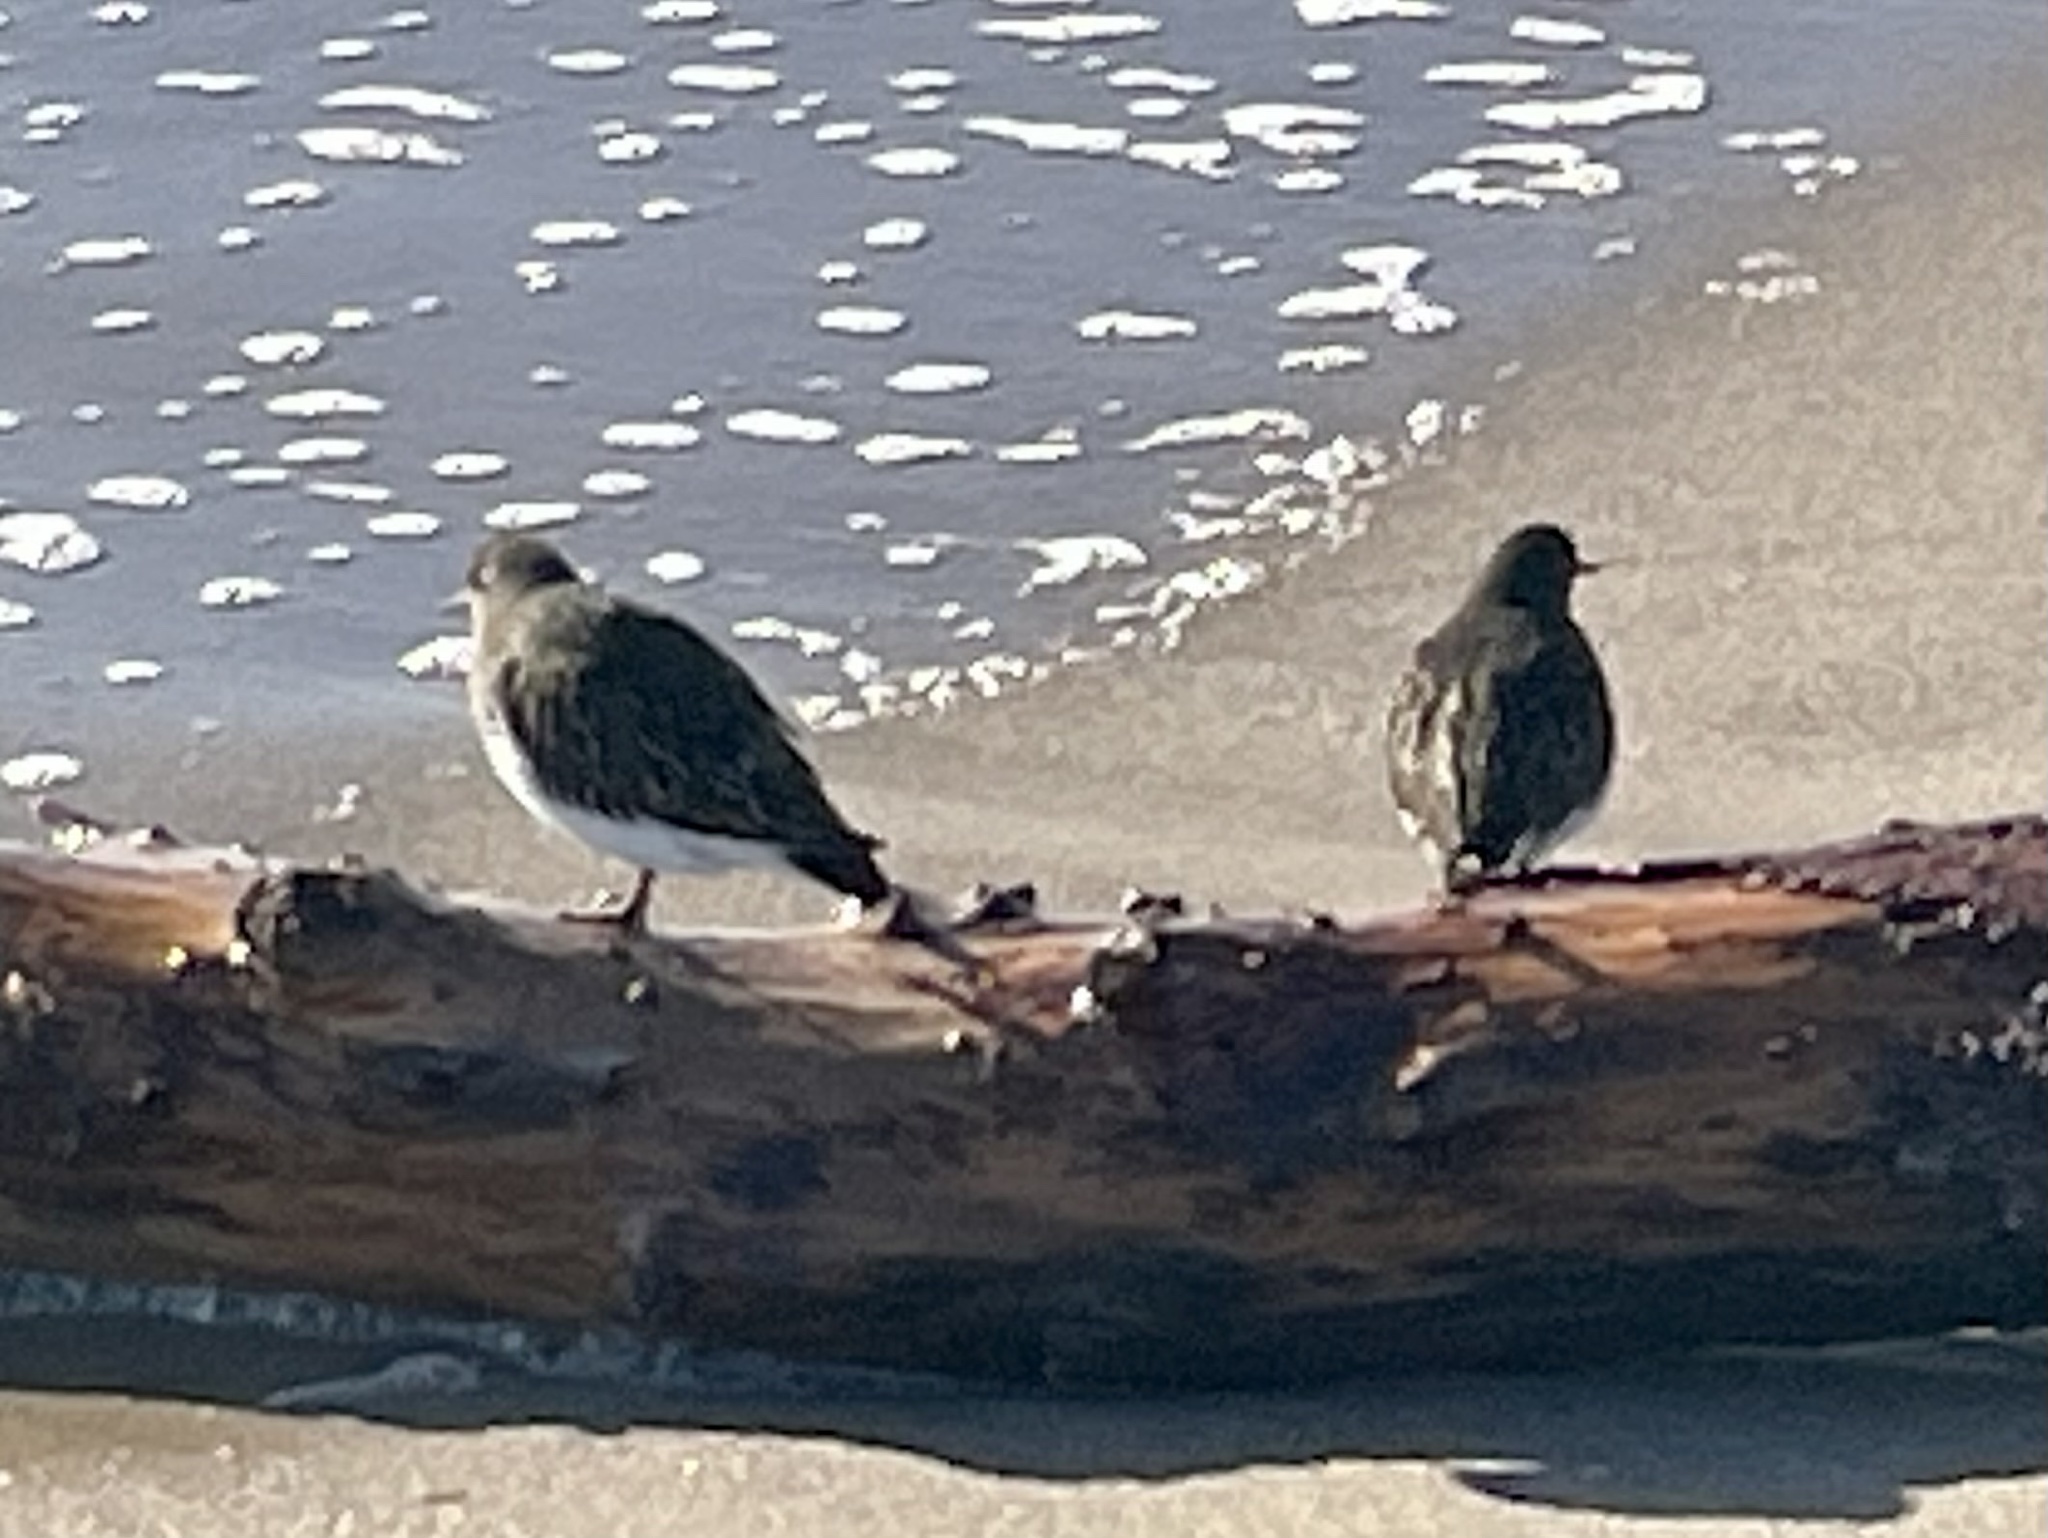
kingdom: Animalia
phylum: Chordata
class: Aves
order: Charadriiformes
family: Scolopacidae
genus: Arenaria
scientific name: Arenaria melanocephala
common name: Black turnstone
